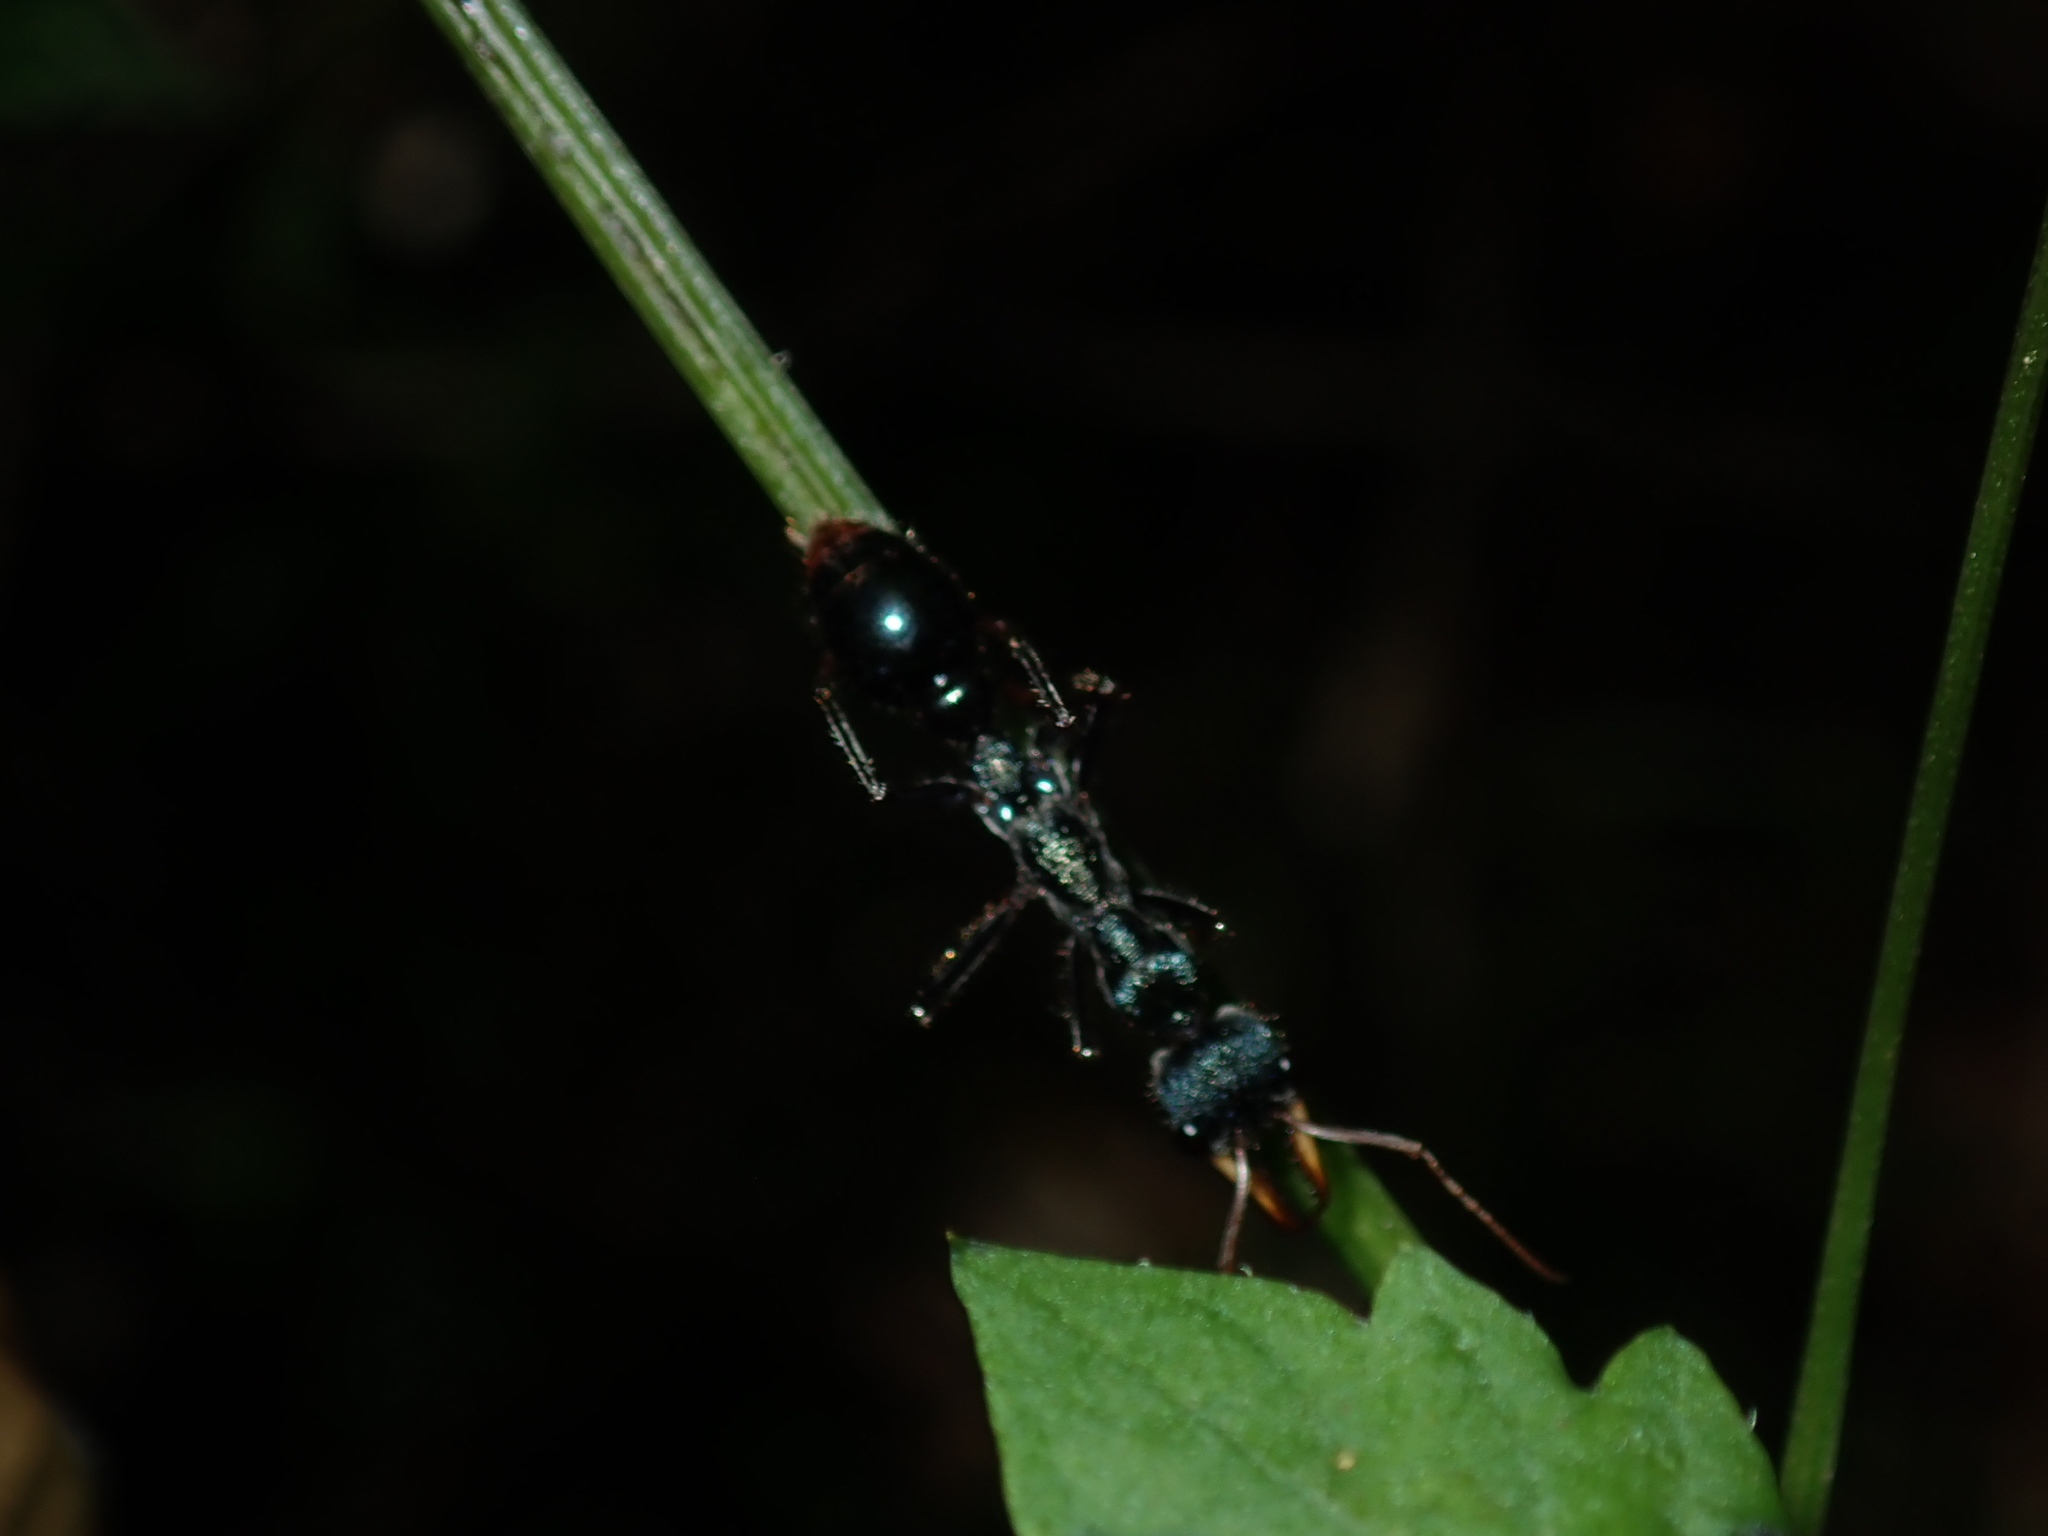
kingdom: Animalia
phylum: Arthropoda
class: Insecta
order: Hymenoptera
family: Formicidae
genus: Myrmecia
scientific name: Myrmecia tarsata
